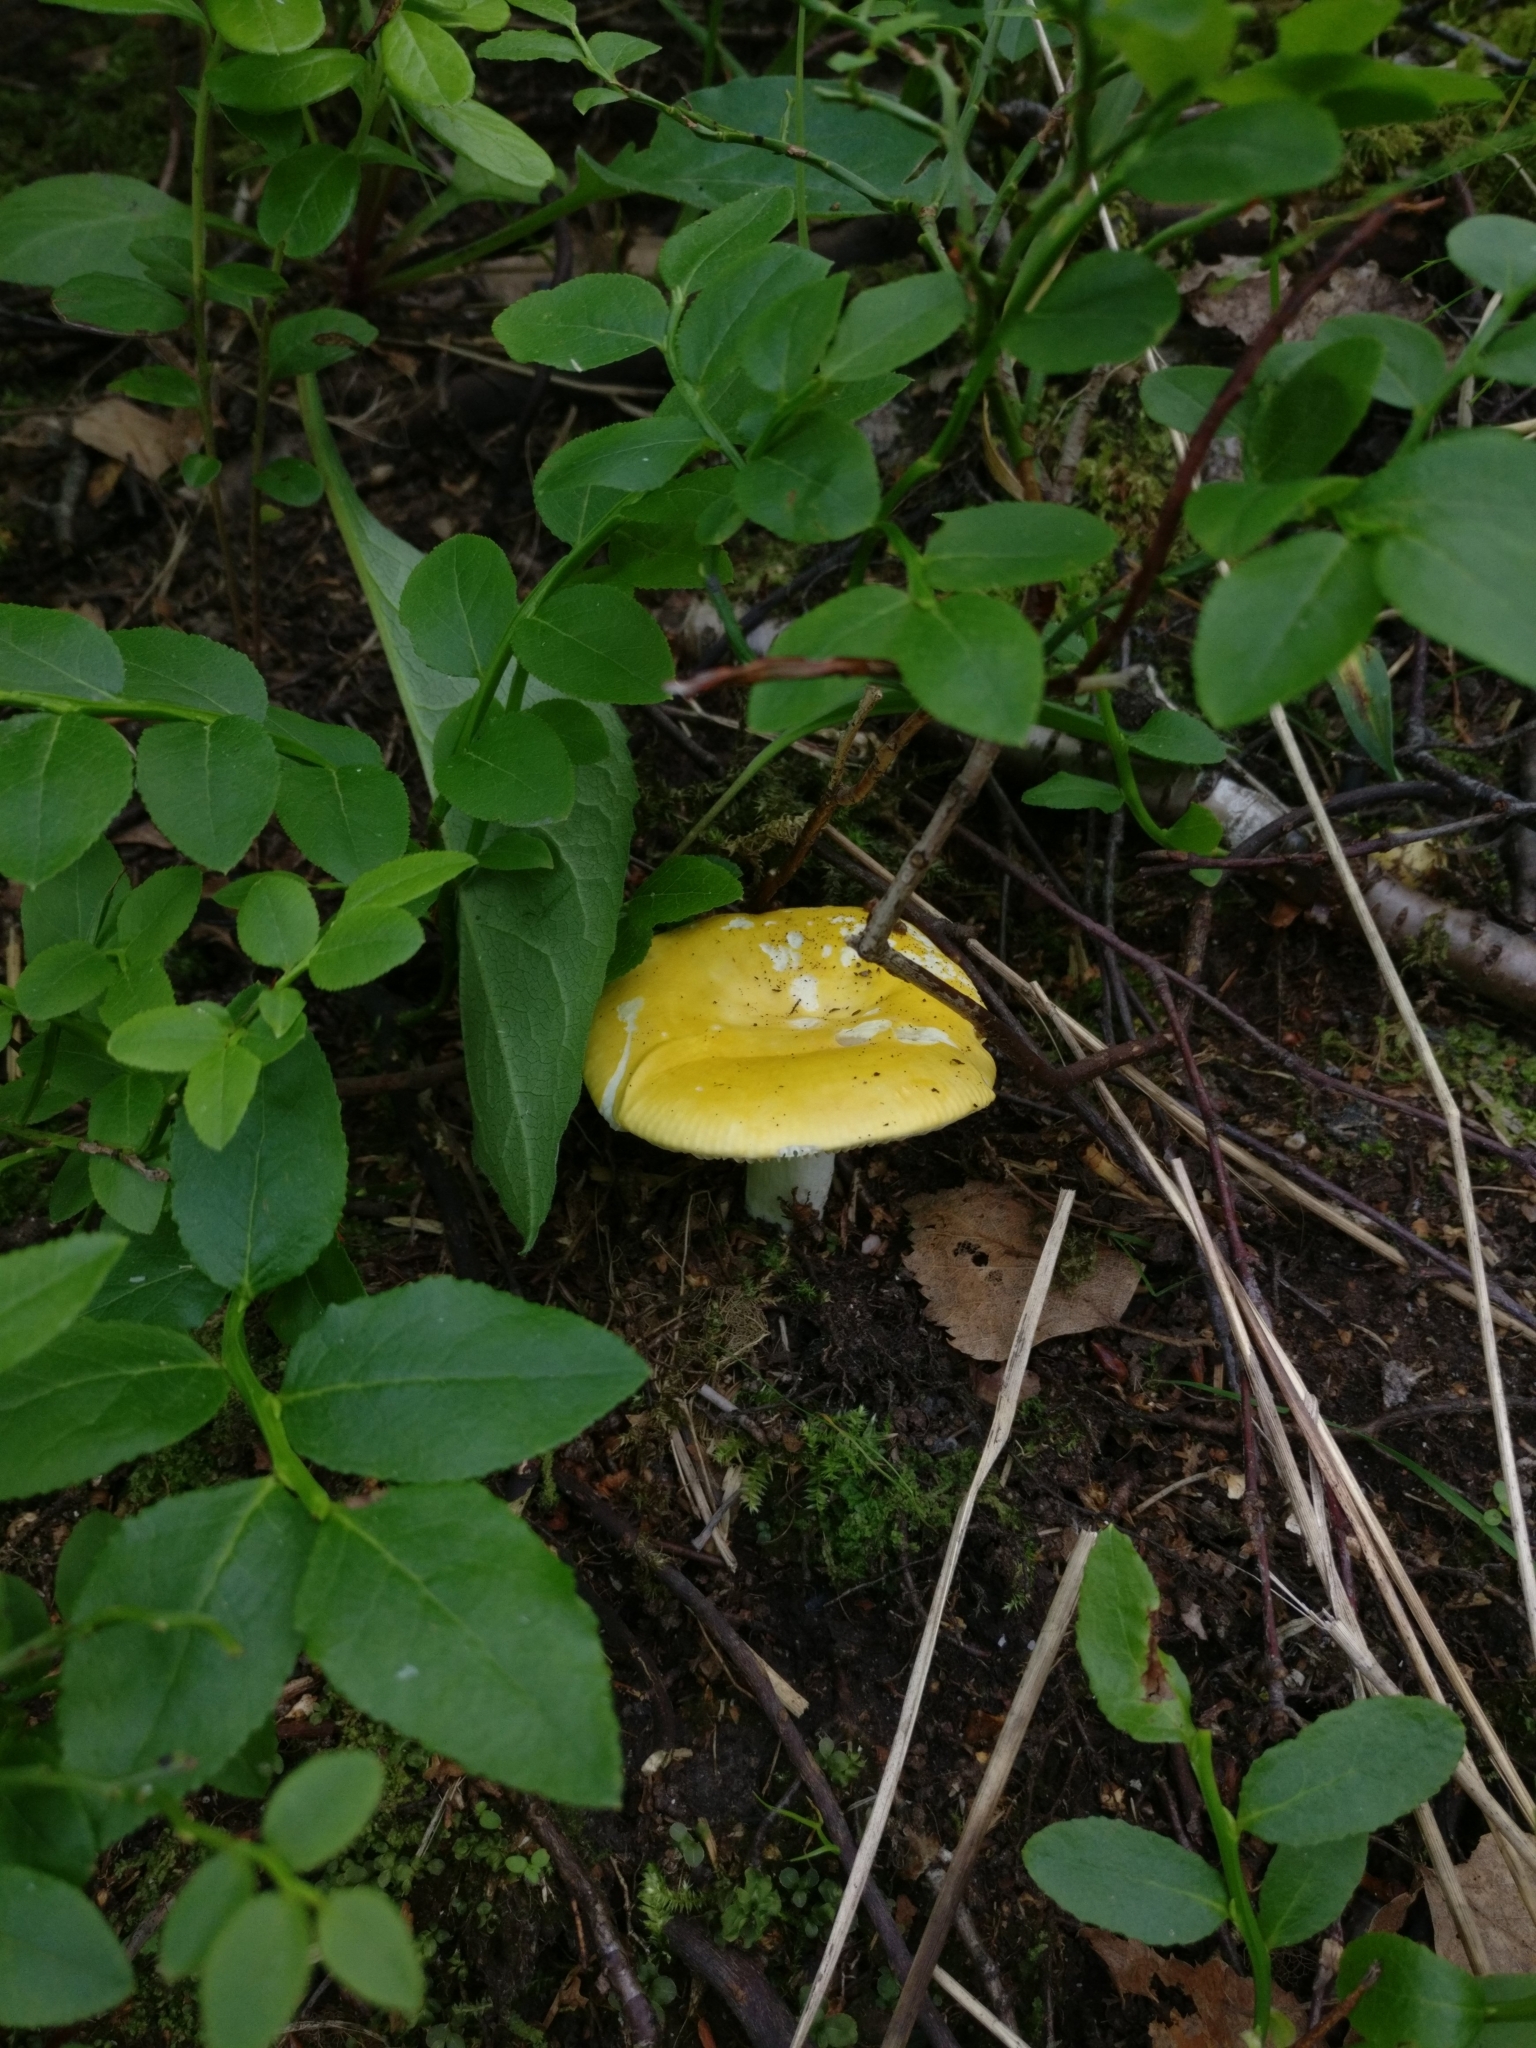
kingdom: Fungi
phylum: Basidiomycota
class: Agaricomycetes
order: Russulales
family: Russulaceae
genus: Russula
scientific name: Russula claroflava
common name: The yellow swamp brittlegill
